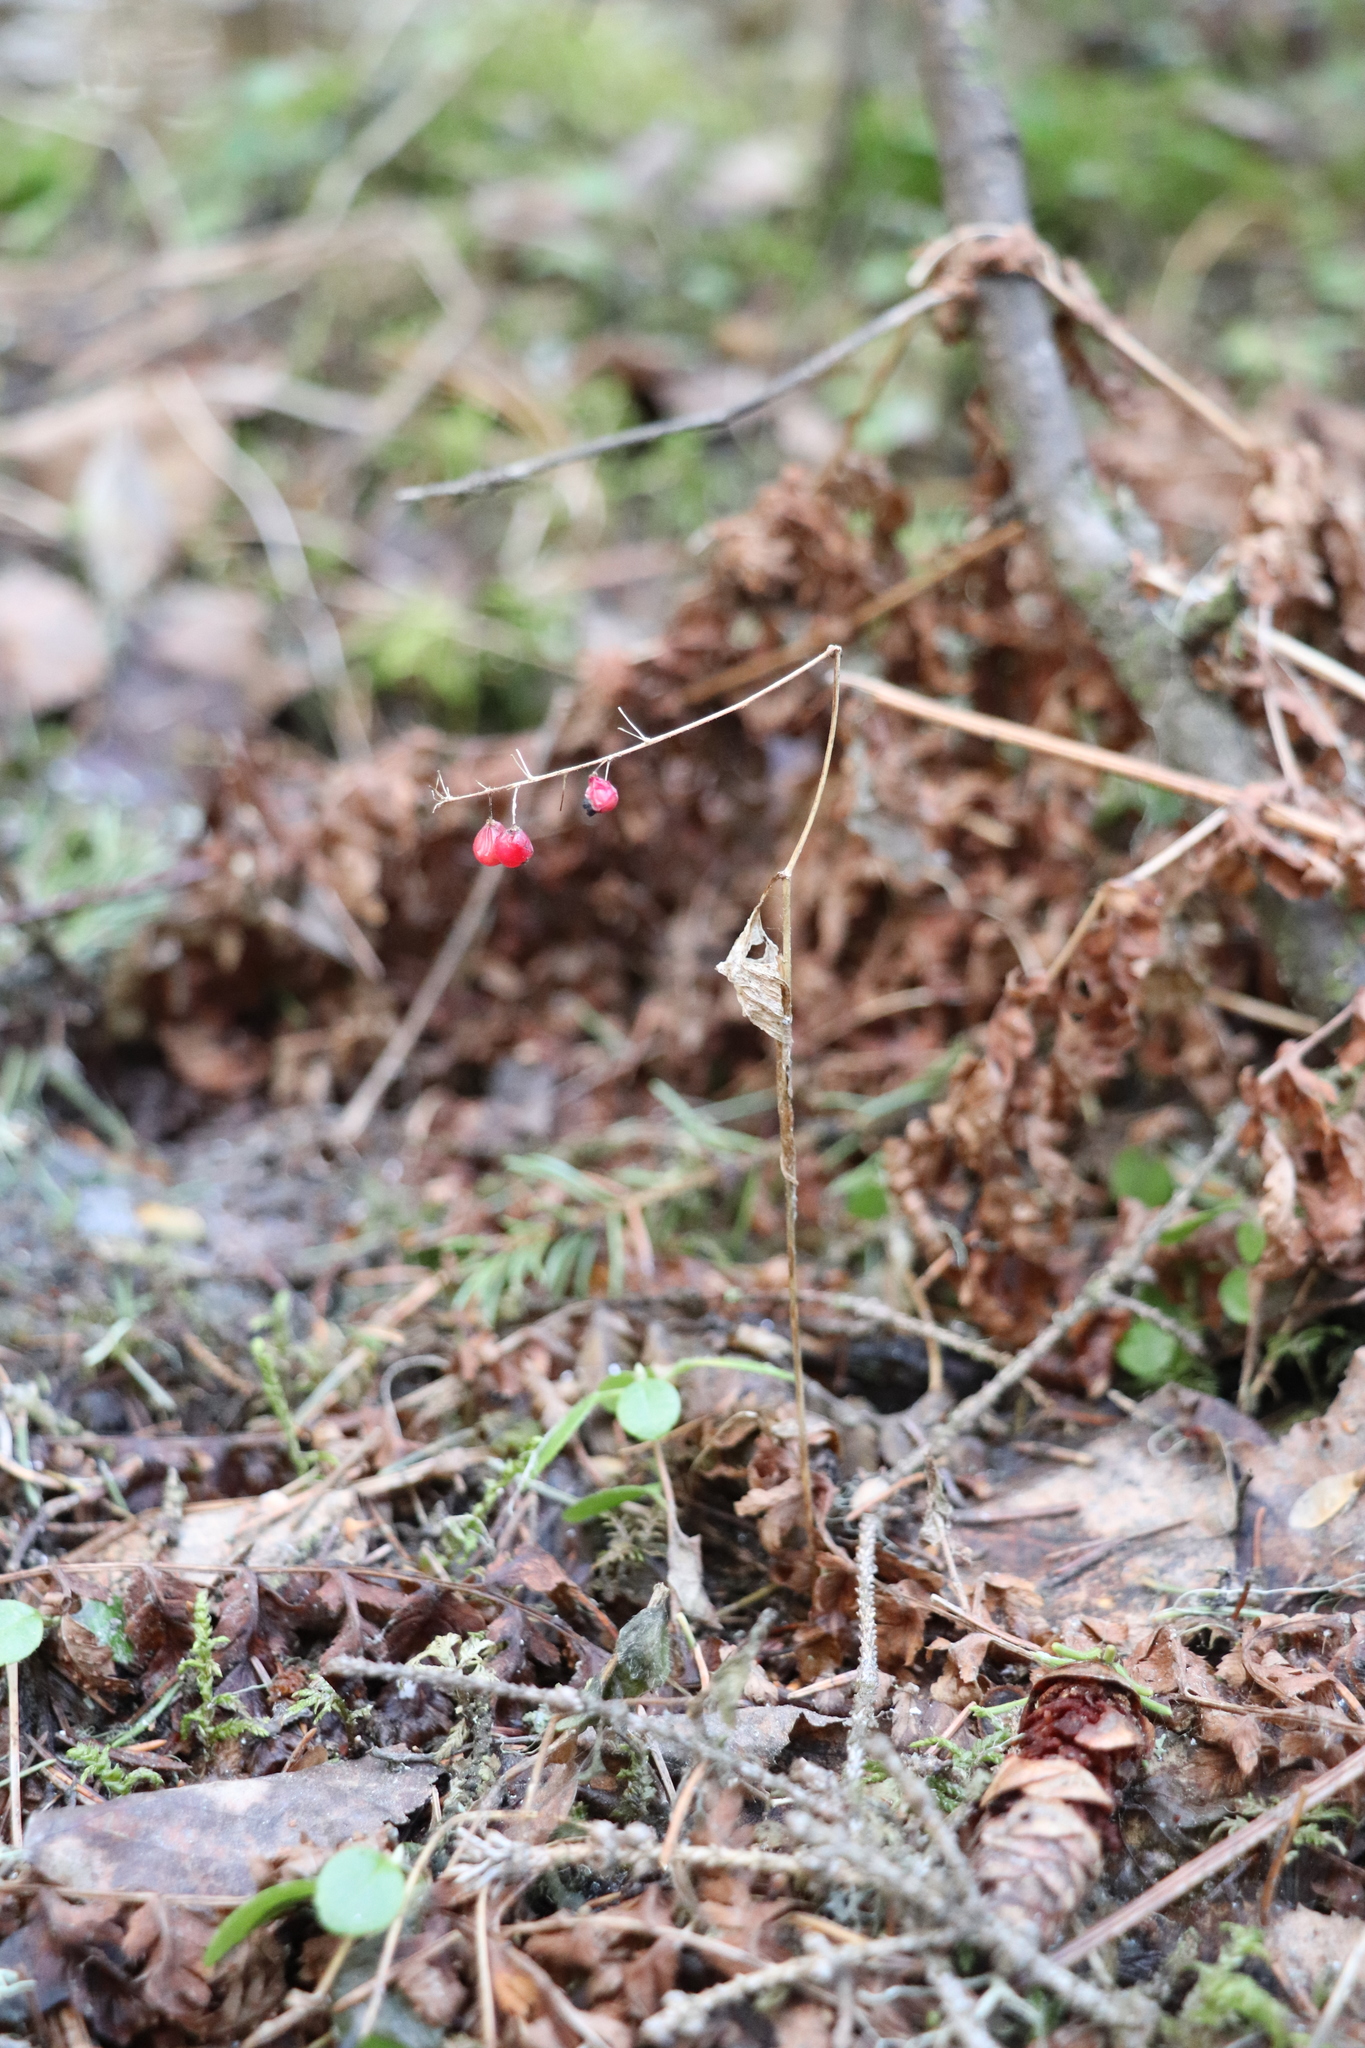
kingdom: Plantae
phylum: Tracheophyta
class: Liliopsida
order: Asparagales
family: Asparagaceae
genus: Maianthemum
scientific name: Maianthemum bifolium
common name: May lily
